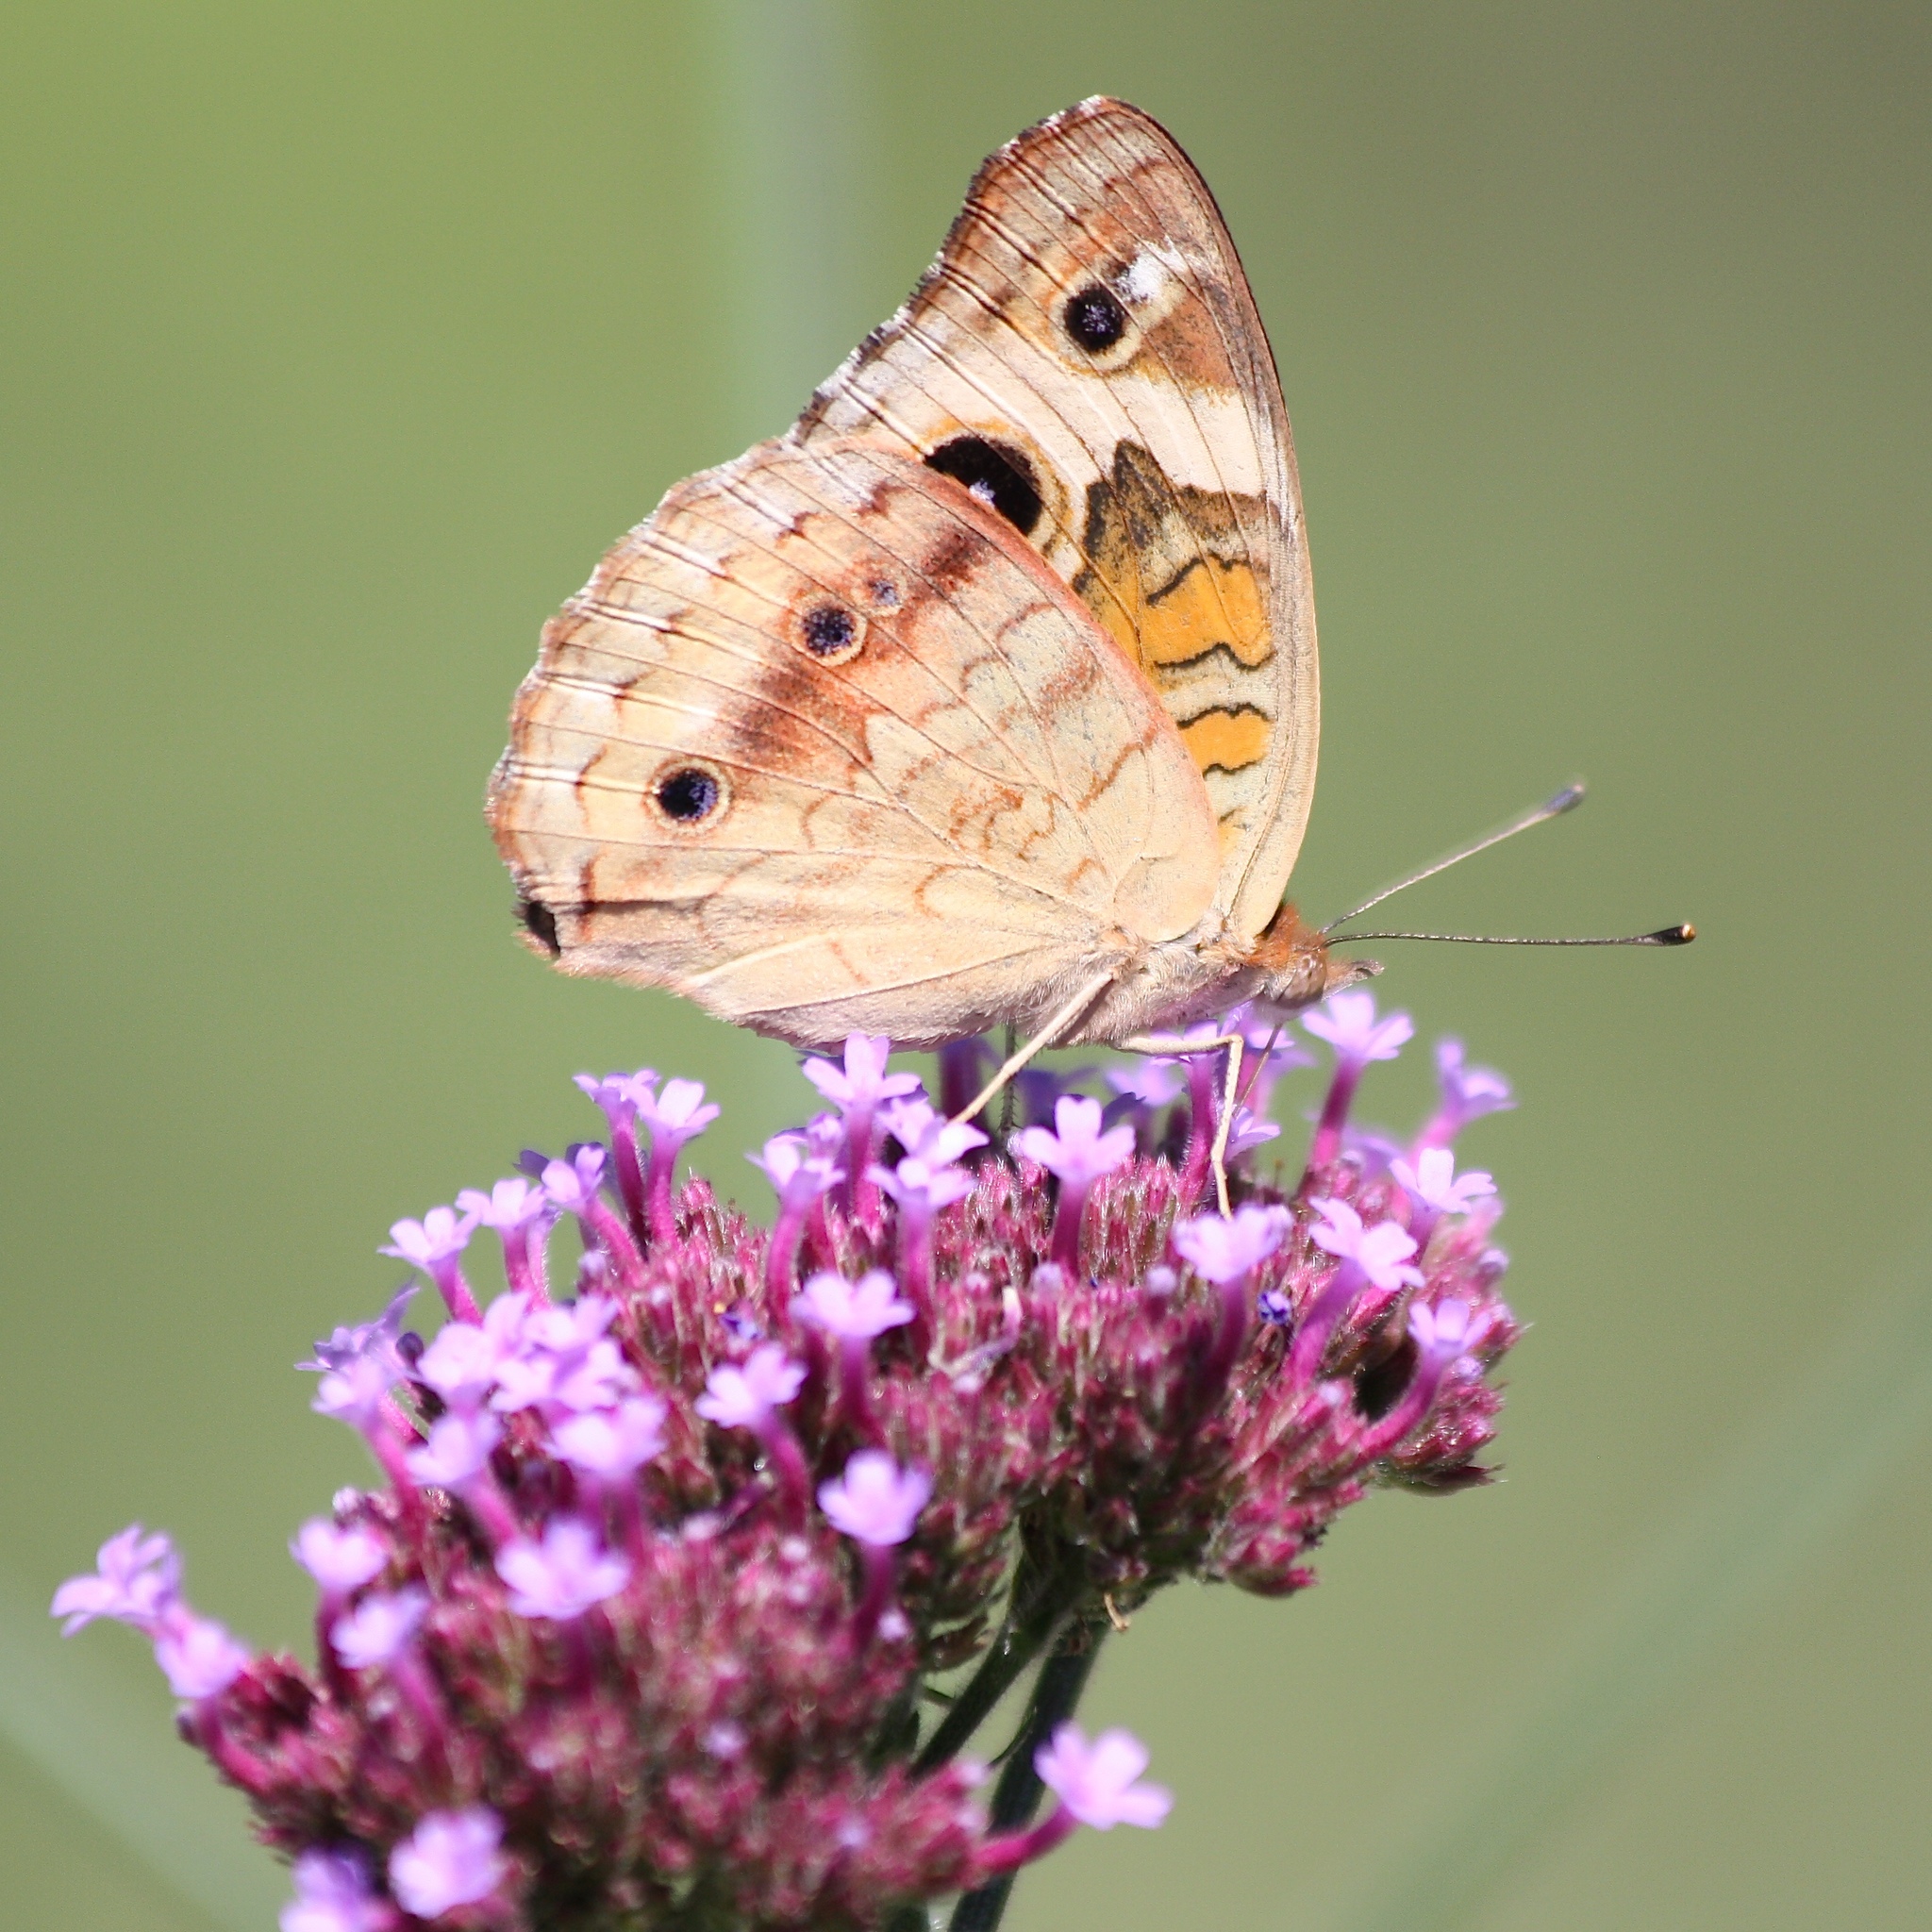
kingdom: Animalia
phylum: Arthropoda
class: Insecta
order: Lepidoptera
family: Nymphalidae
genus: Junonia
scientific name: Junonia coenia
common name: Common buckeye
